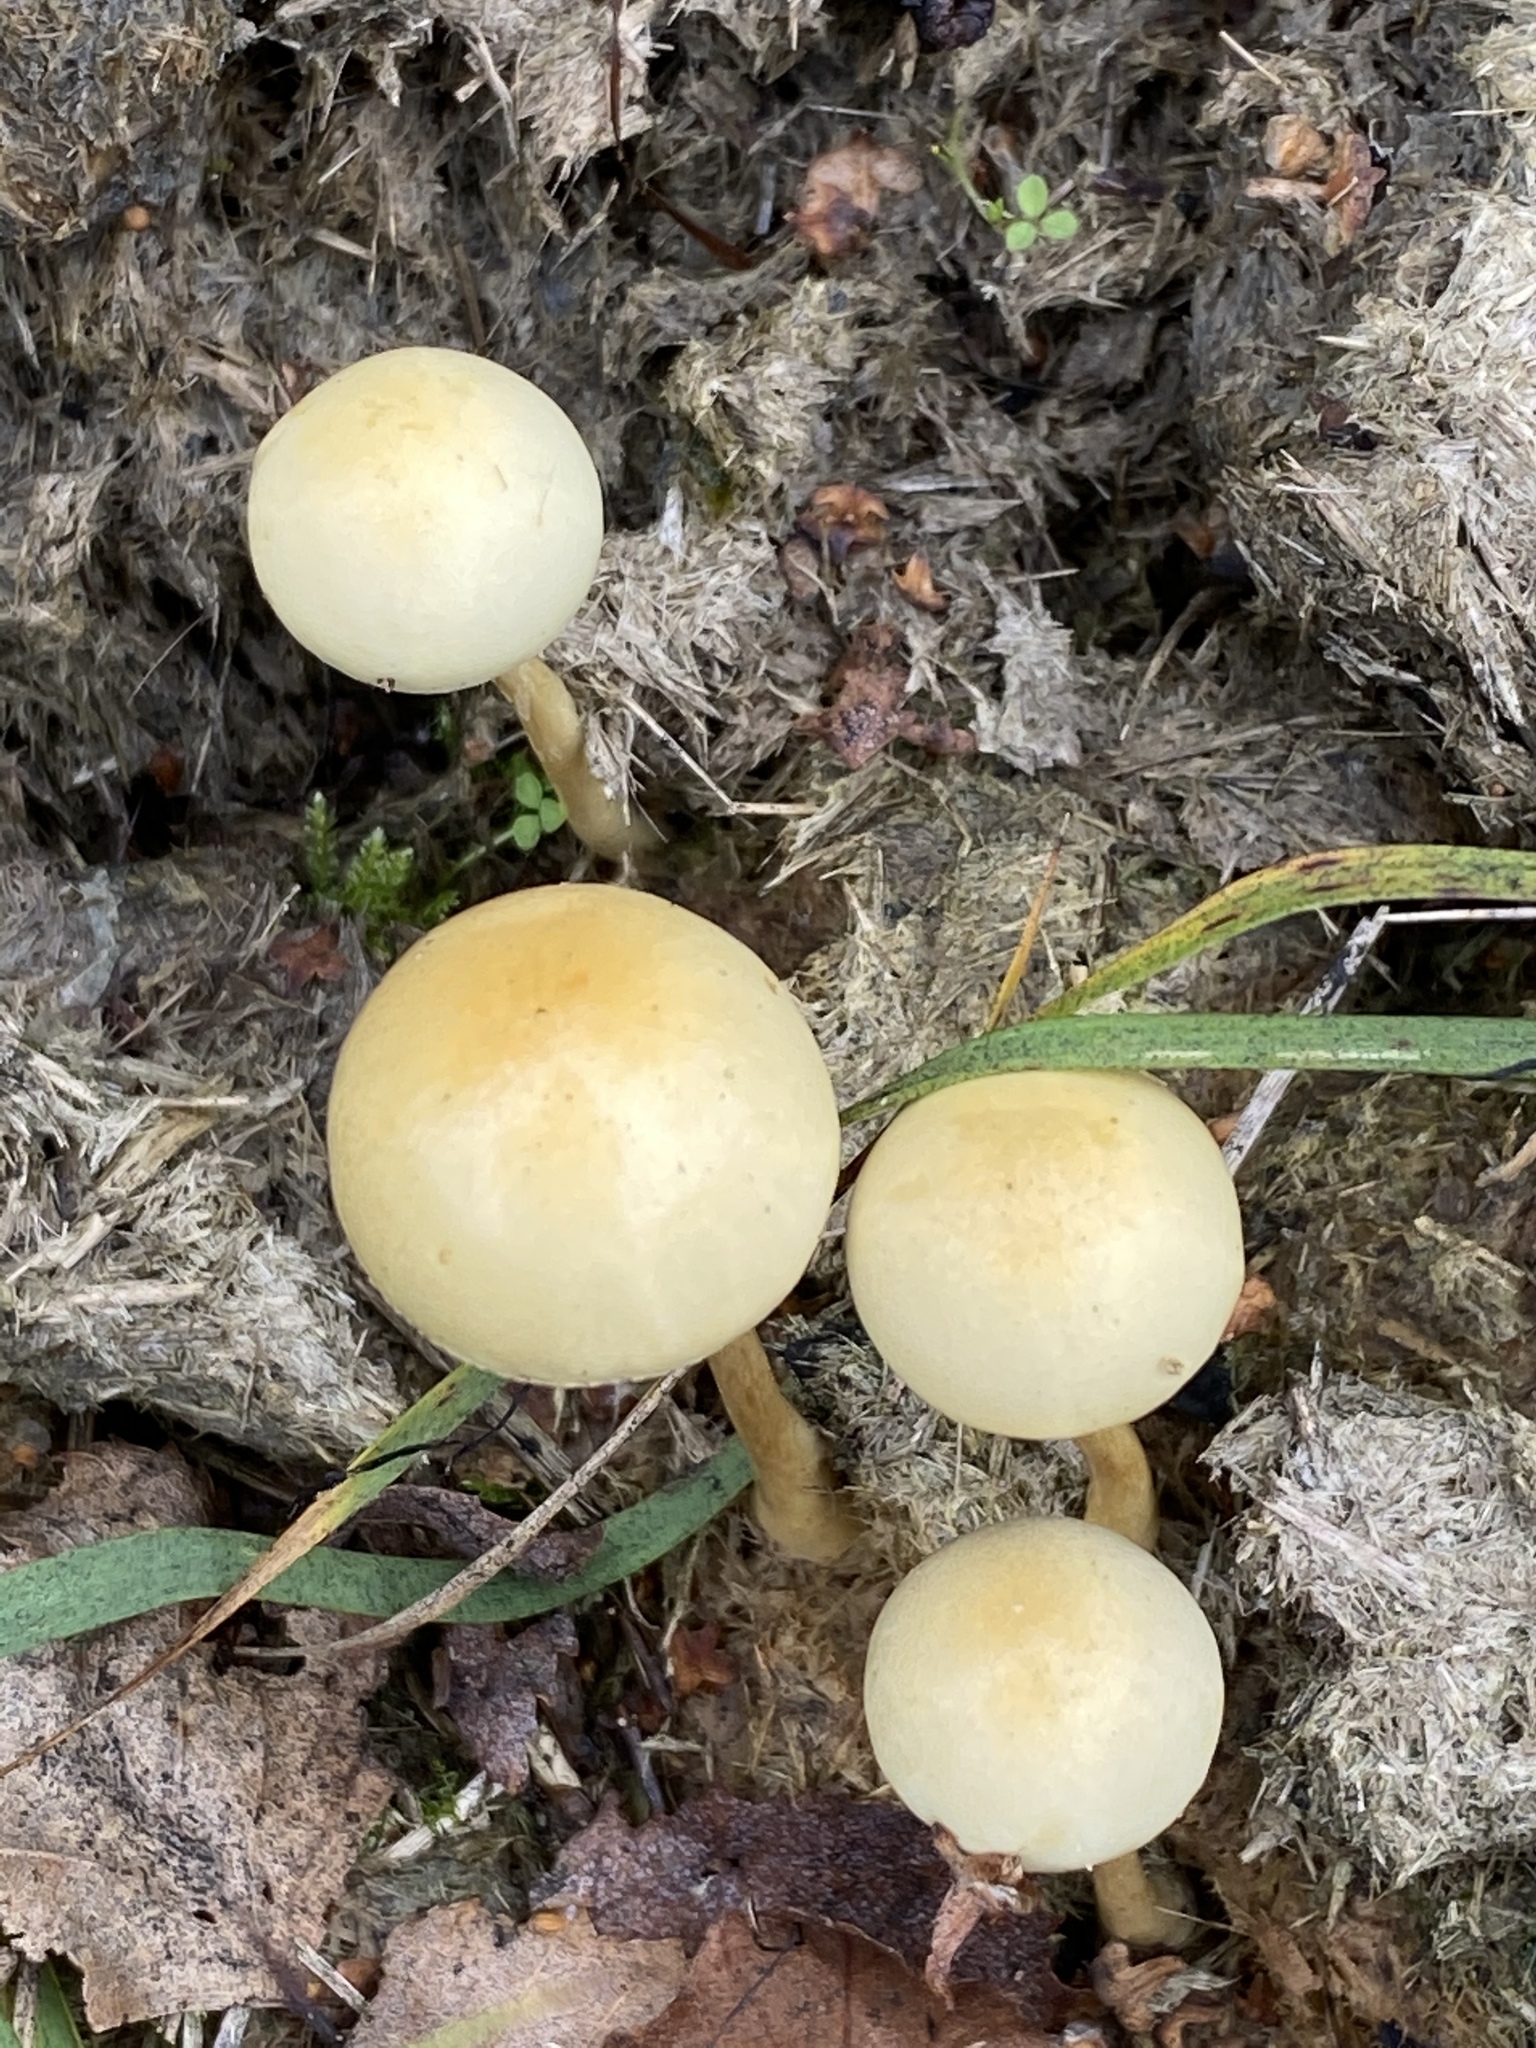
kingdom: Fungi
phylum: Basidiomycota
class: Agaricomycetes
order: Agaricales
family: Strophariaceae
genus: Protostropharia
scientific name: Protostropharia semiglobata
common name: Dung roundhead
